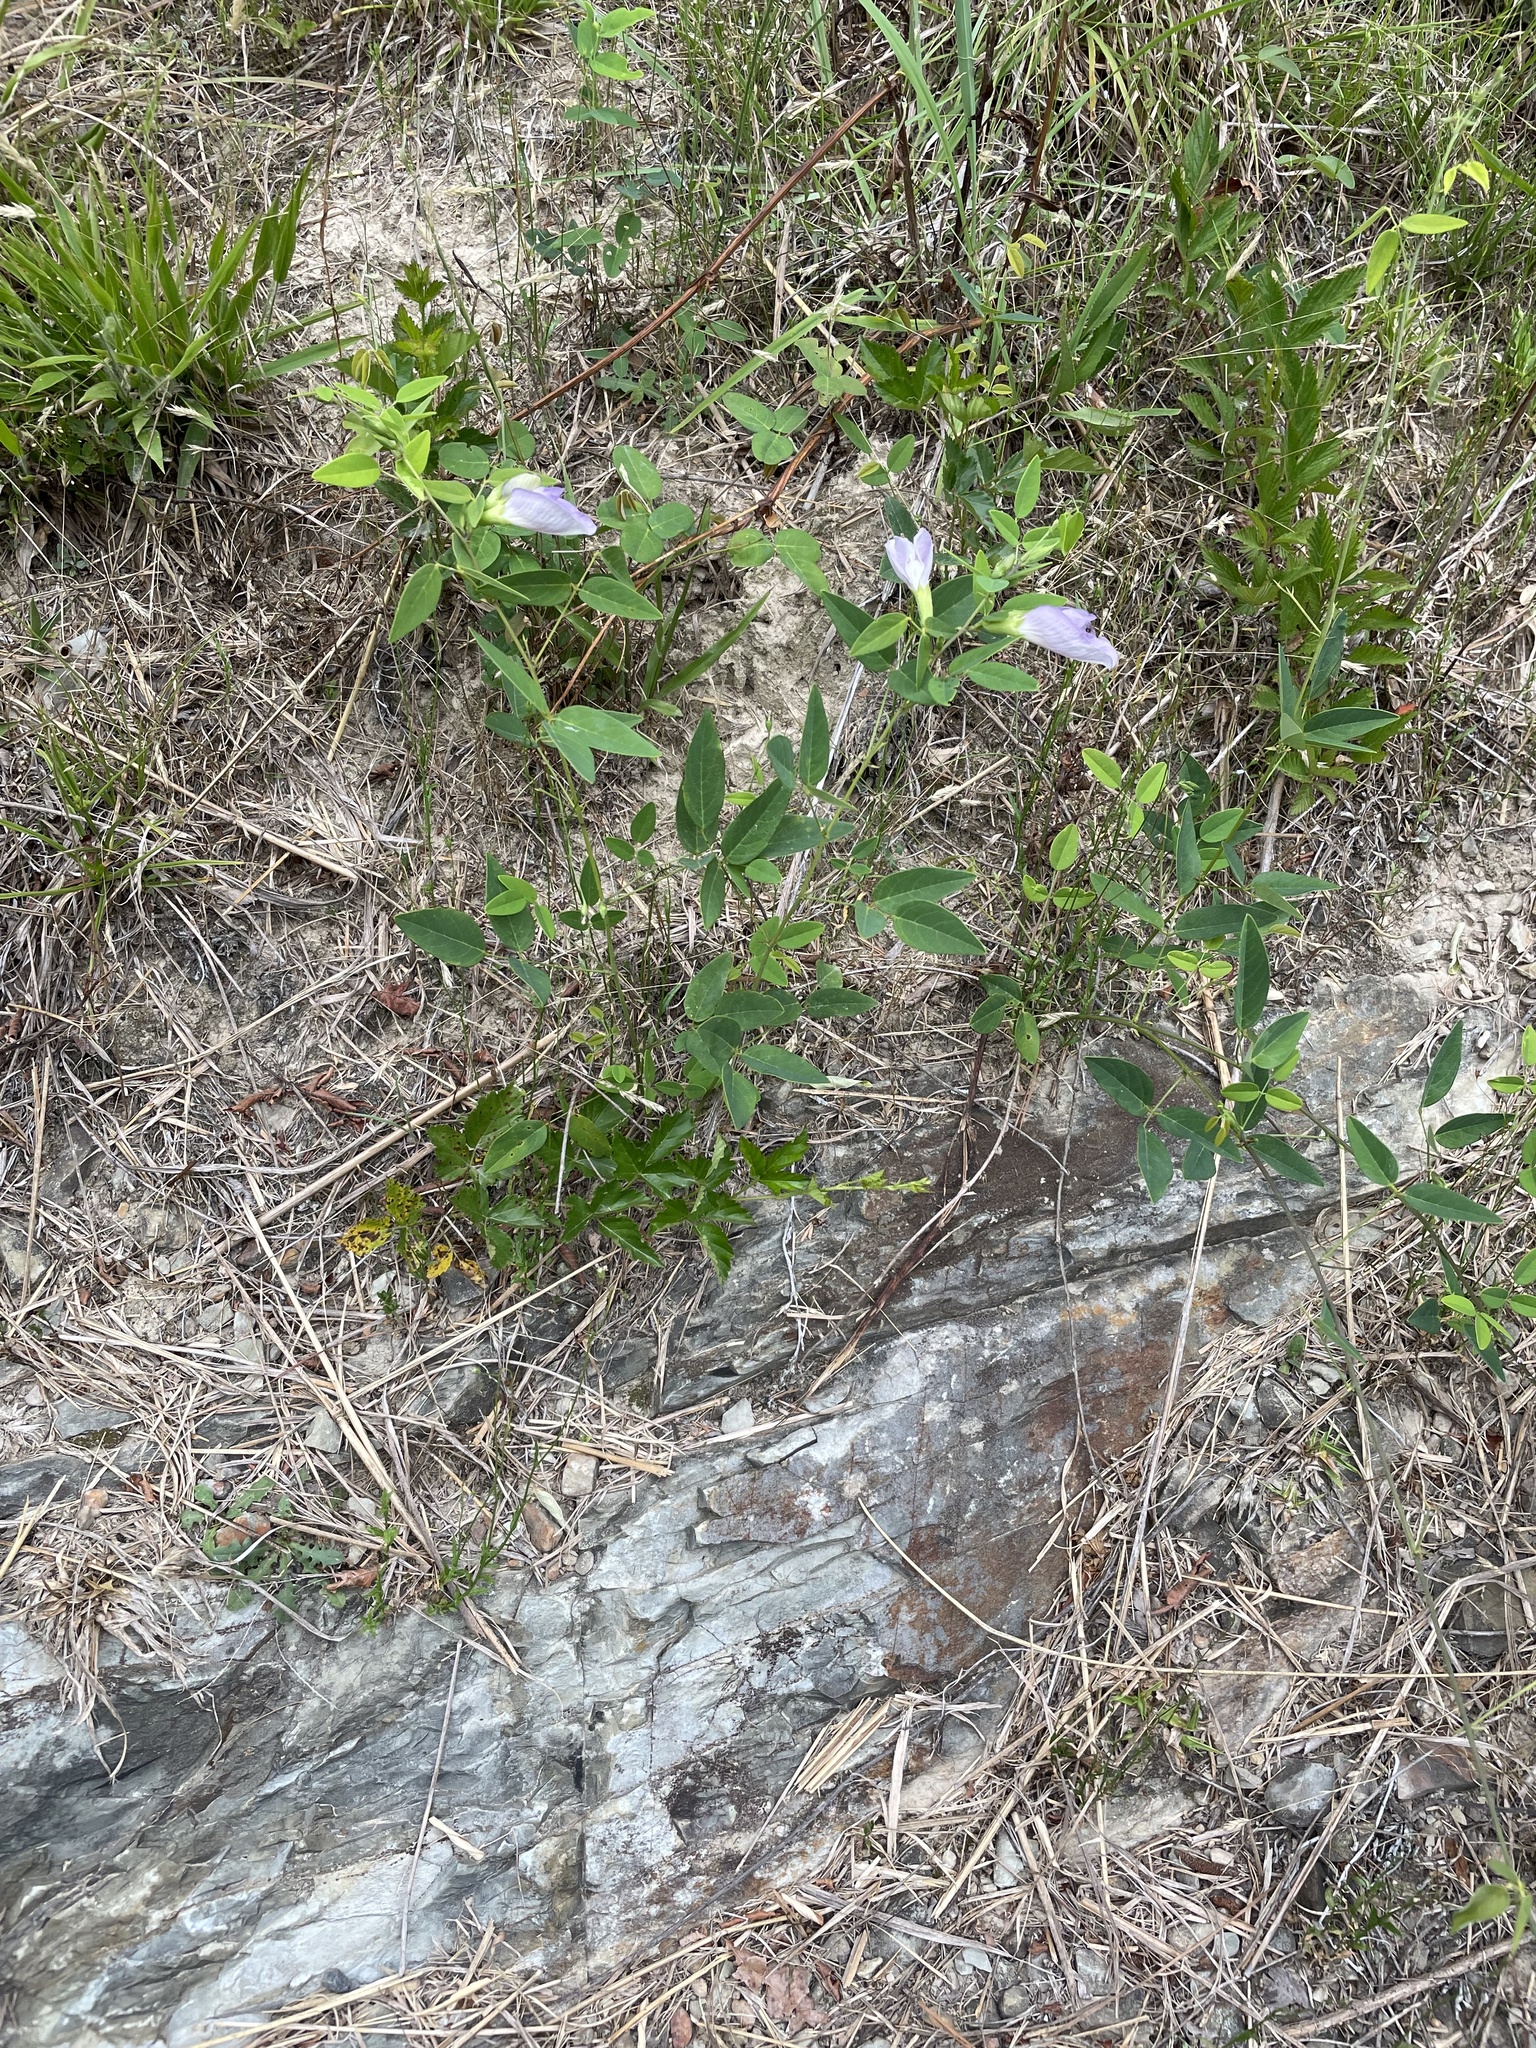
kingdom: Plantae
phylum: Tracheophyta
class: Magnoliopsida
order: Fabales
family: Fabaceae
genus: Clitoria
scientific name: Clitoria mariana
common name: Butterfly-pea
